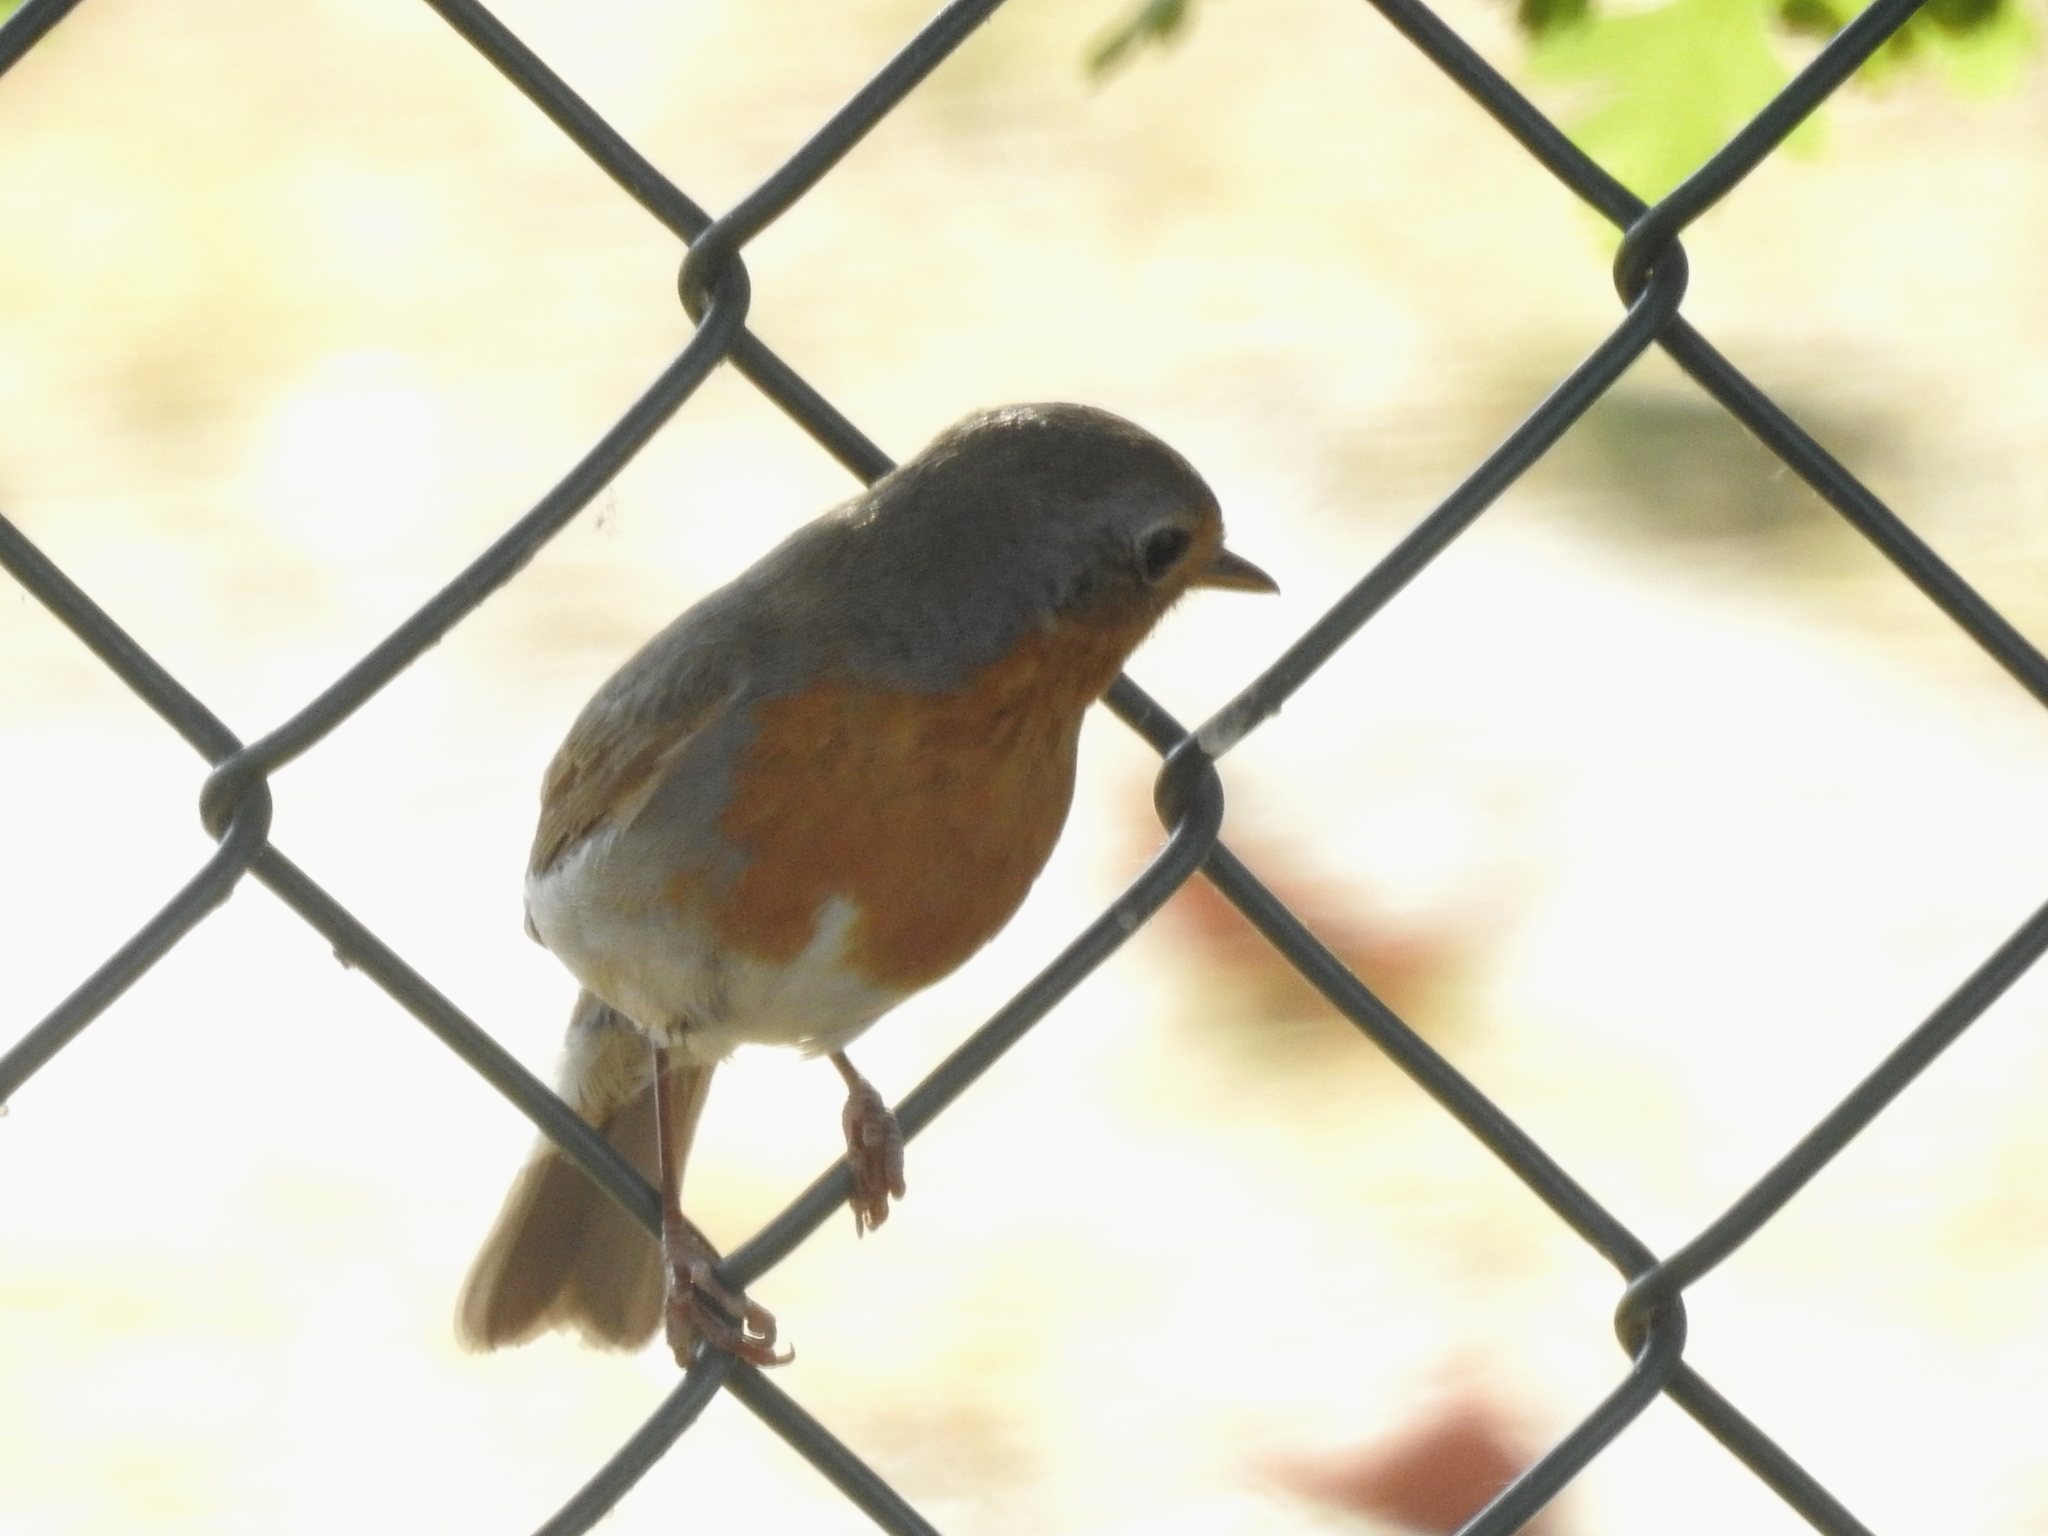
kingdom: Animalia
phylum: Chordata
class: Aves
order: Passeriformes
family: Muscicapidae
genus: Erithacus
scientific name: Erithacus rubecula
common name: European robin
